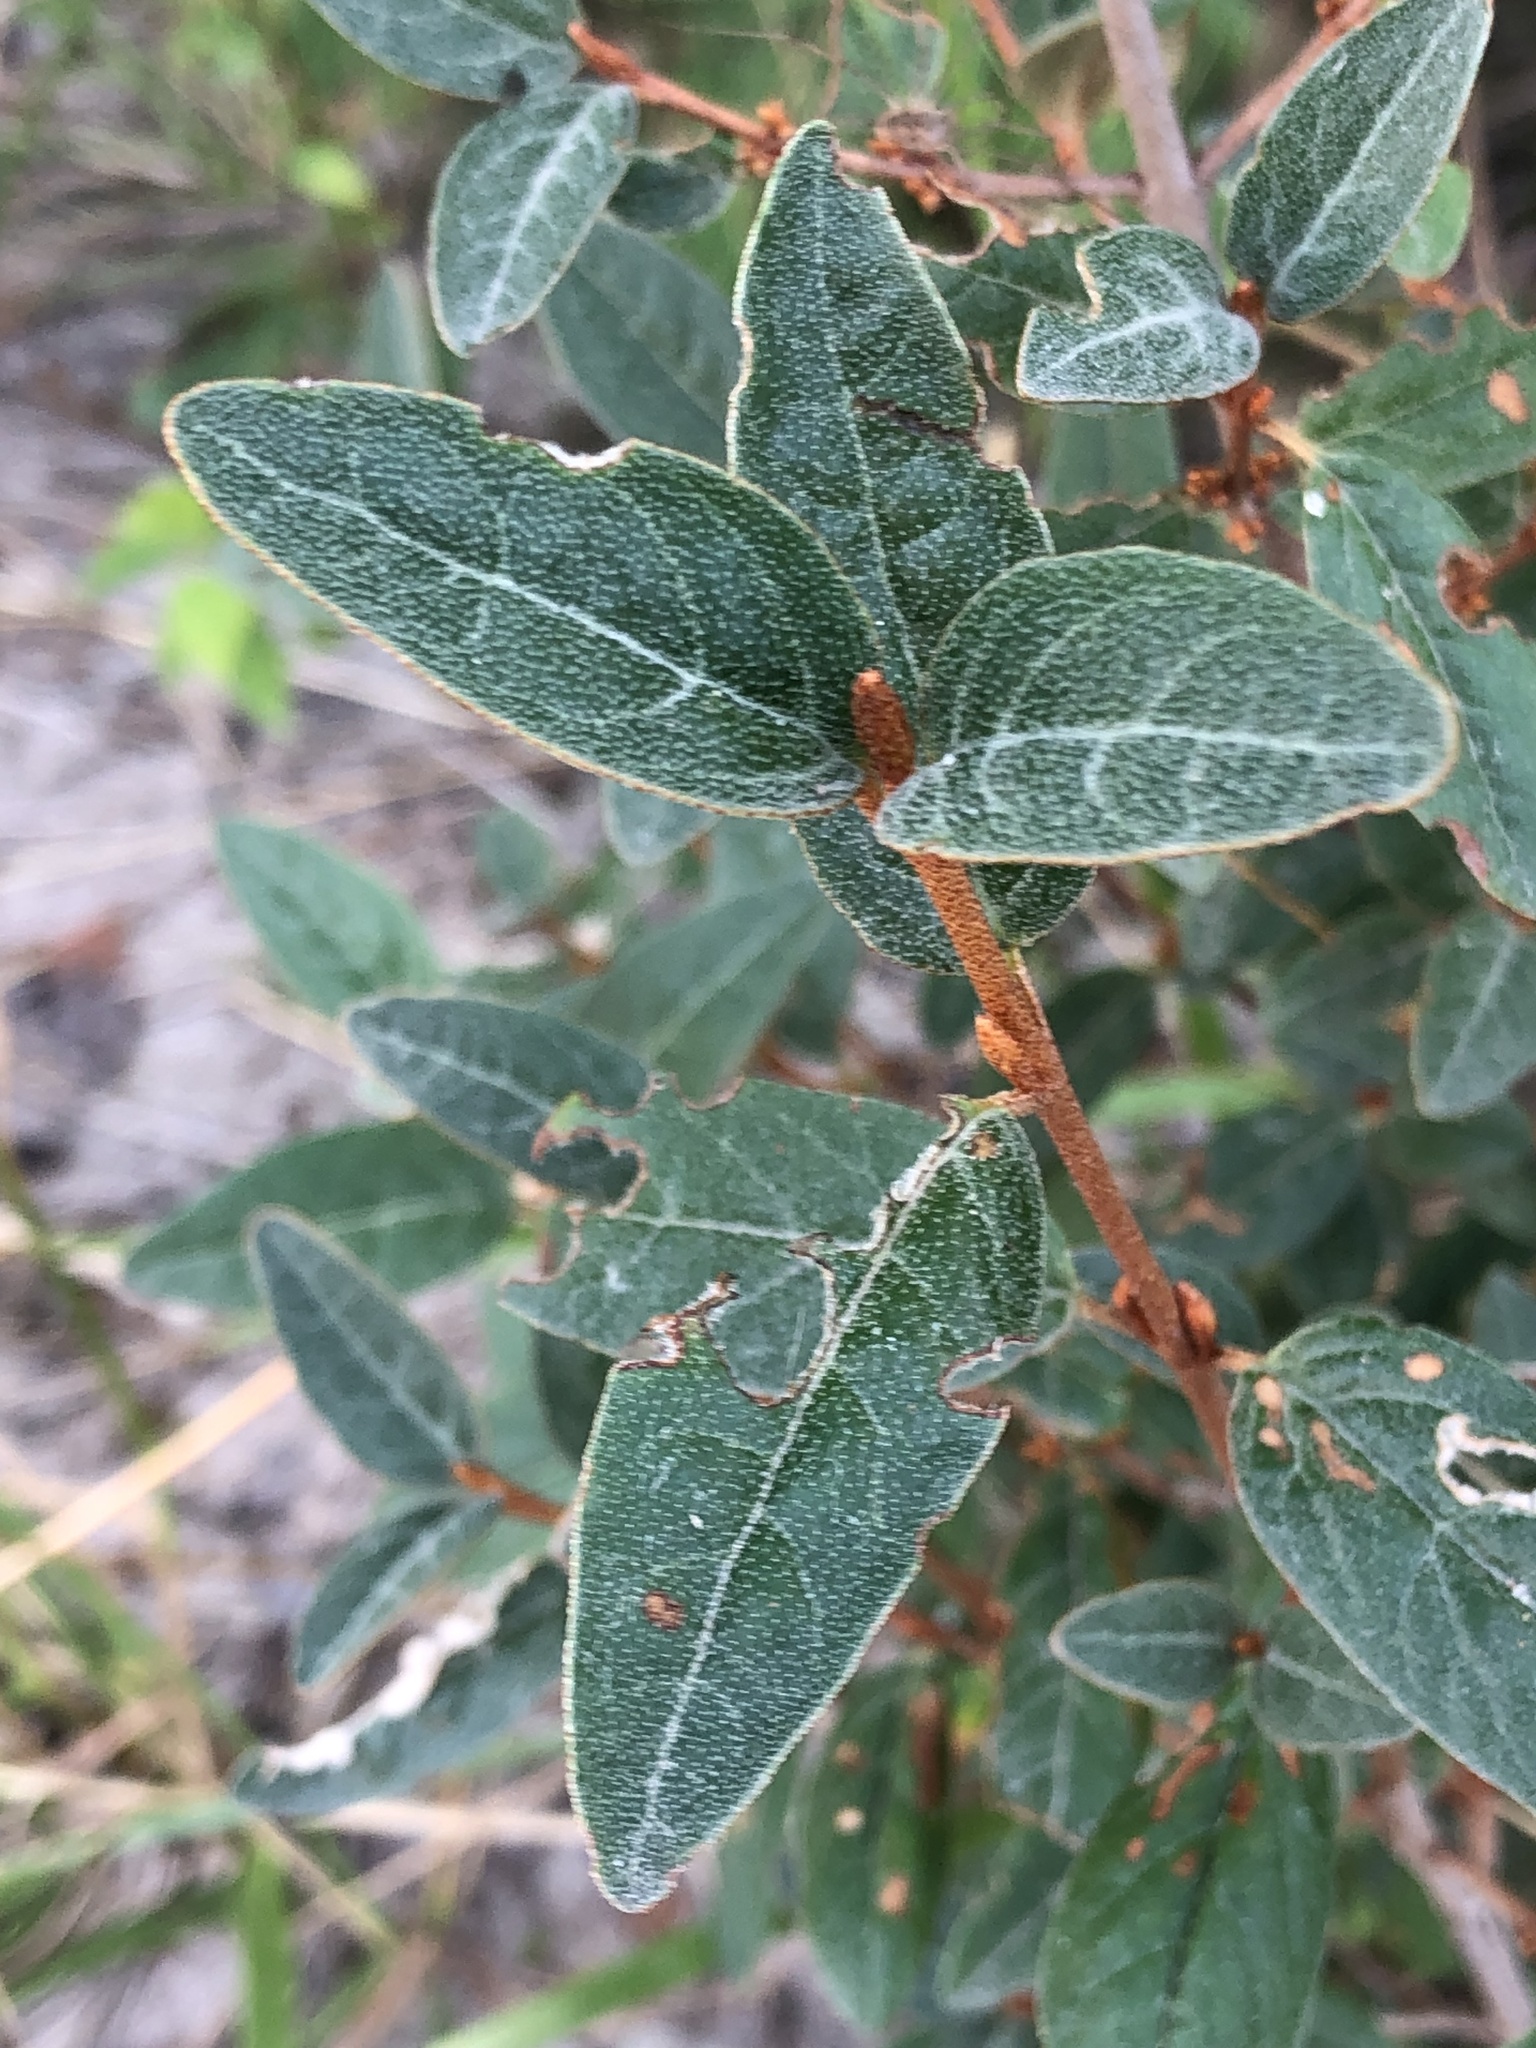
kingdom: Plantae
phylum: Tracheophyta
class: Magnoliopsida
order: Rosales
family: Elaeagnaceae
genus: Shepherdia
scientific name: Shepherdia canadensis
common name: Soapberry
